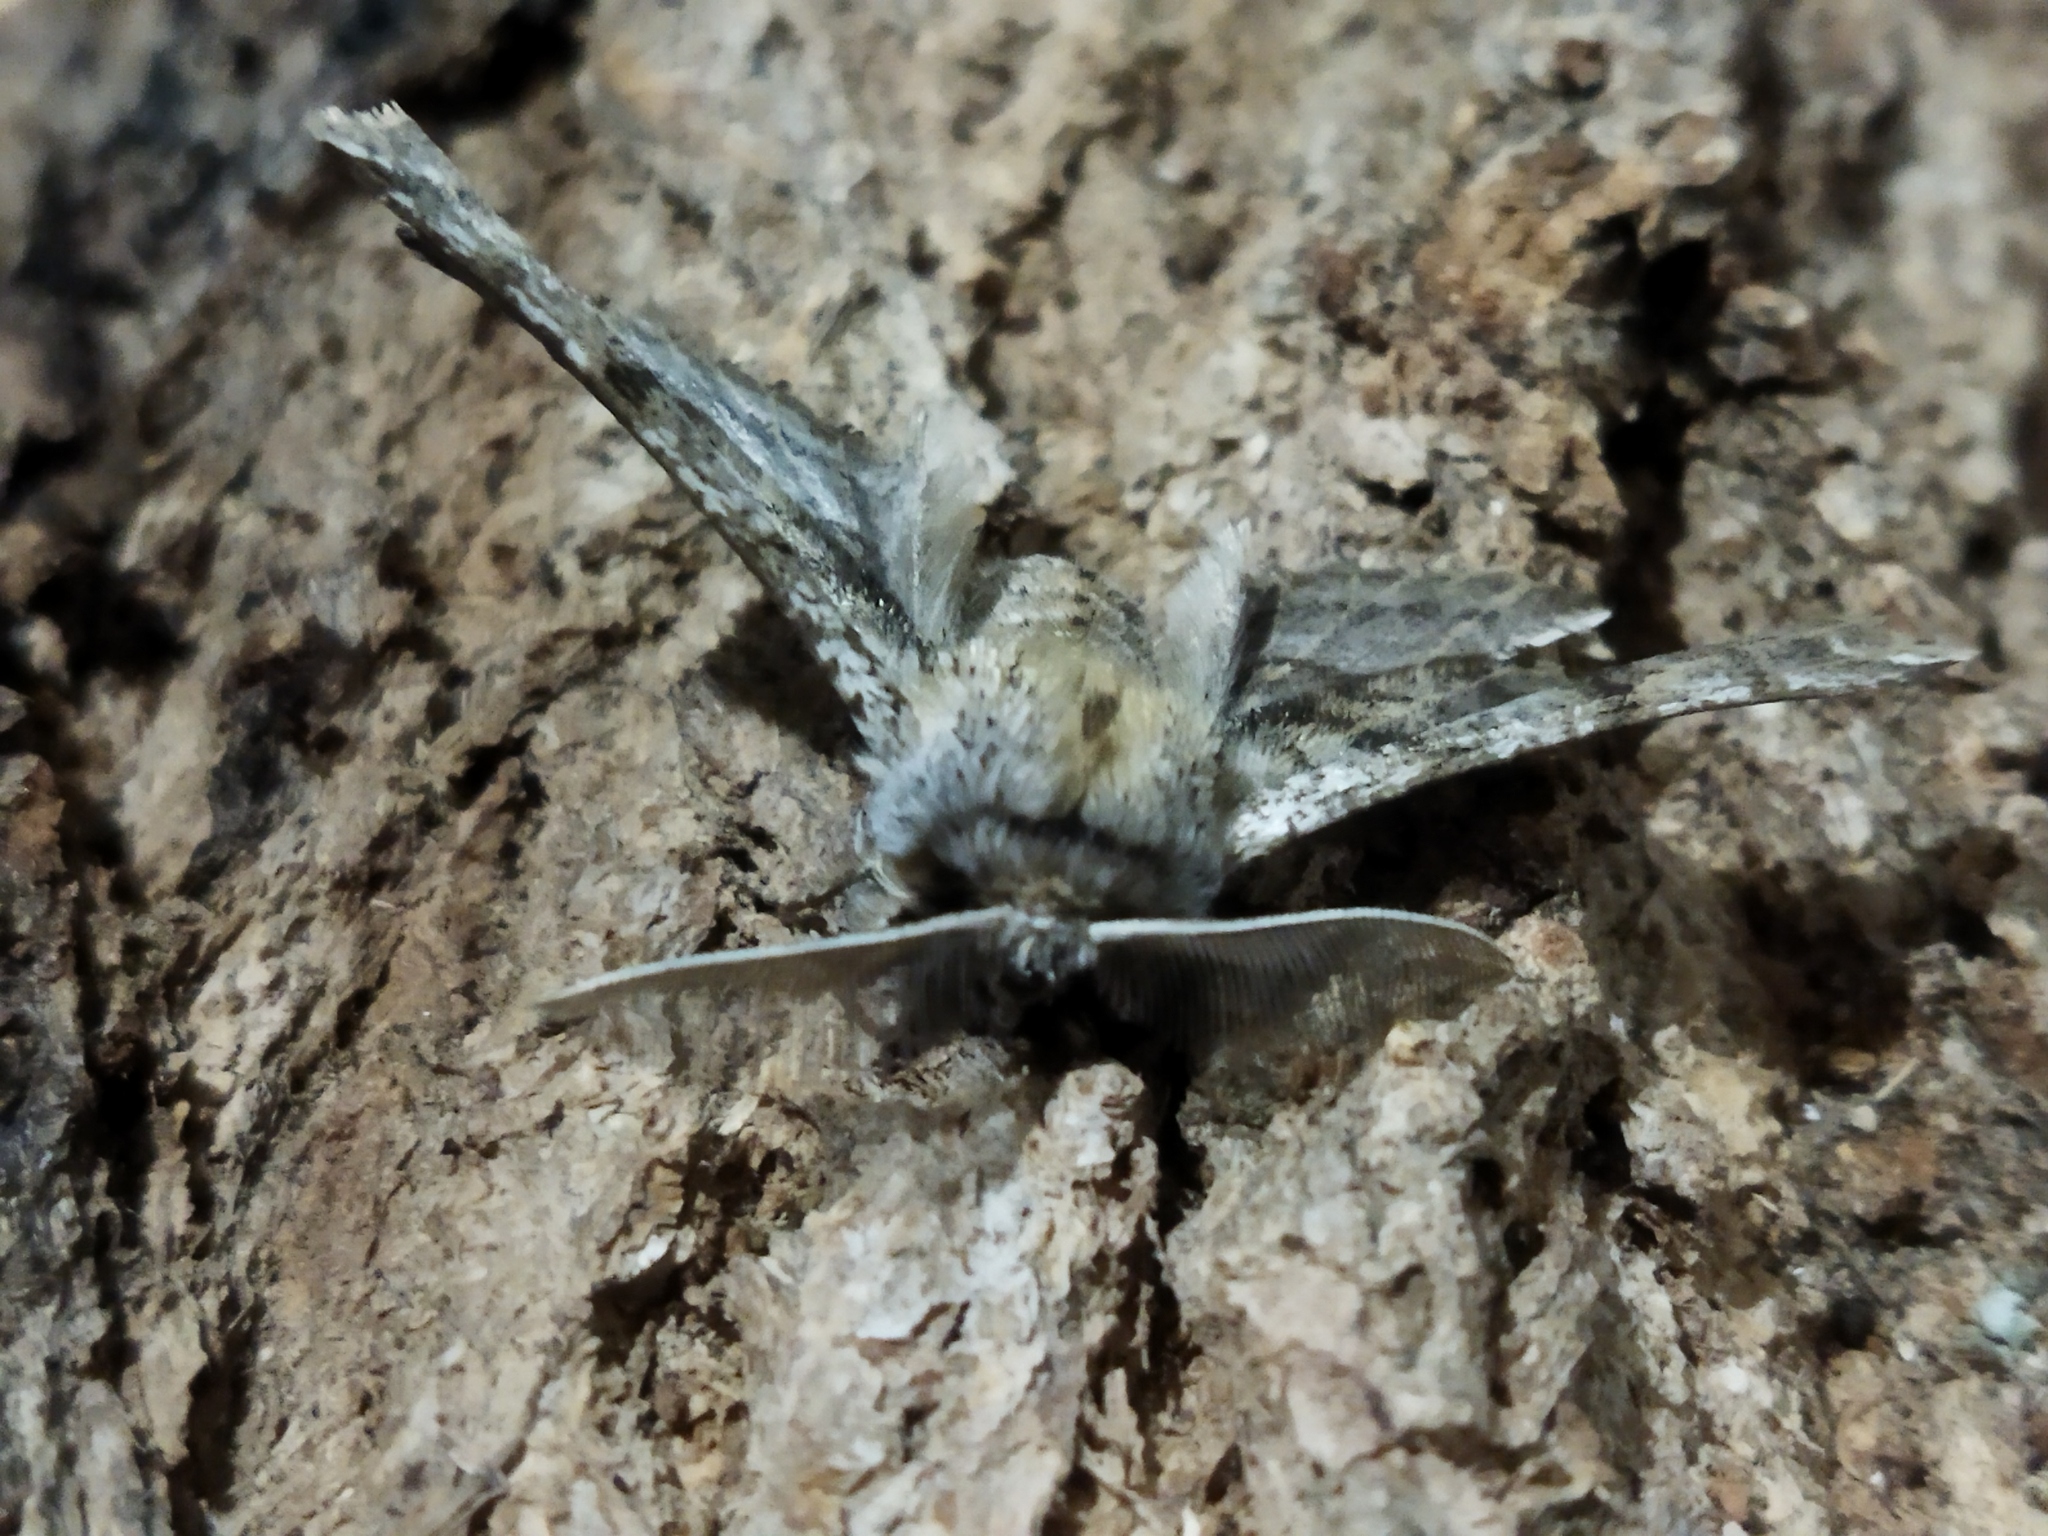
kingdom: Animalia
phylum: Arthropoda
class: Insecta
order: Lepidoptera
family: Geometridae
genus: Apochima
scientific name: Apochima flabellaria
